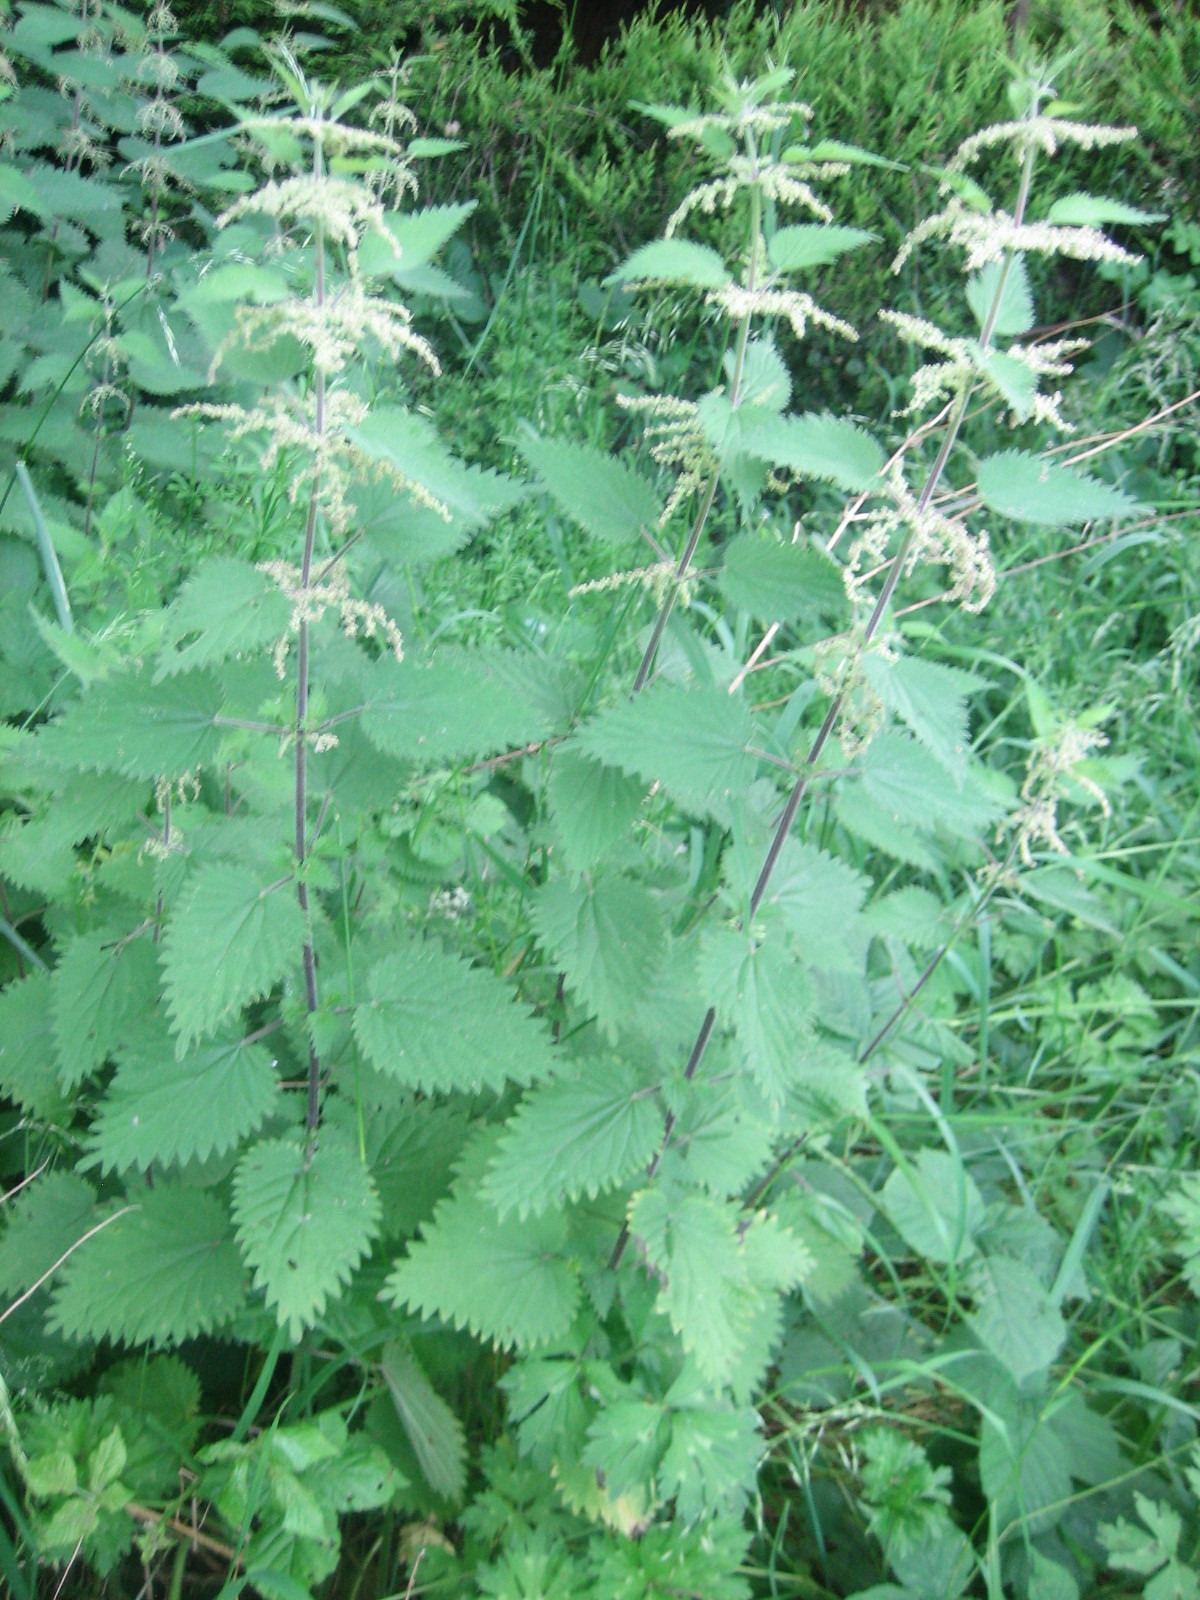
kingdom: Plantae
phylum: Tracheophyta
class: Magnoliopsida
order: Rosales
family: Urticaceae
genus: Urtica
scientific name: Urtica dioica
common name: Common nettle
